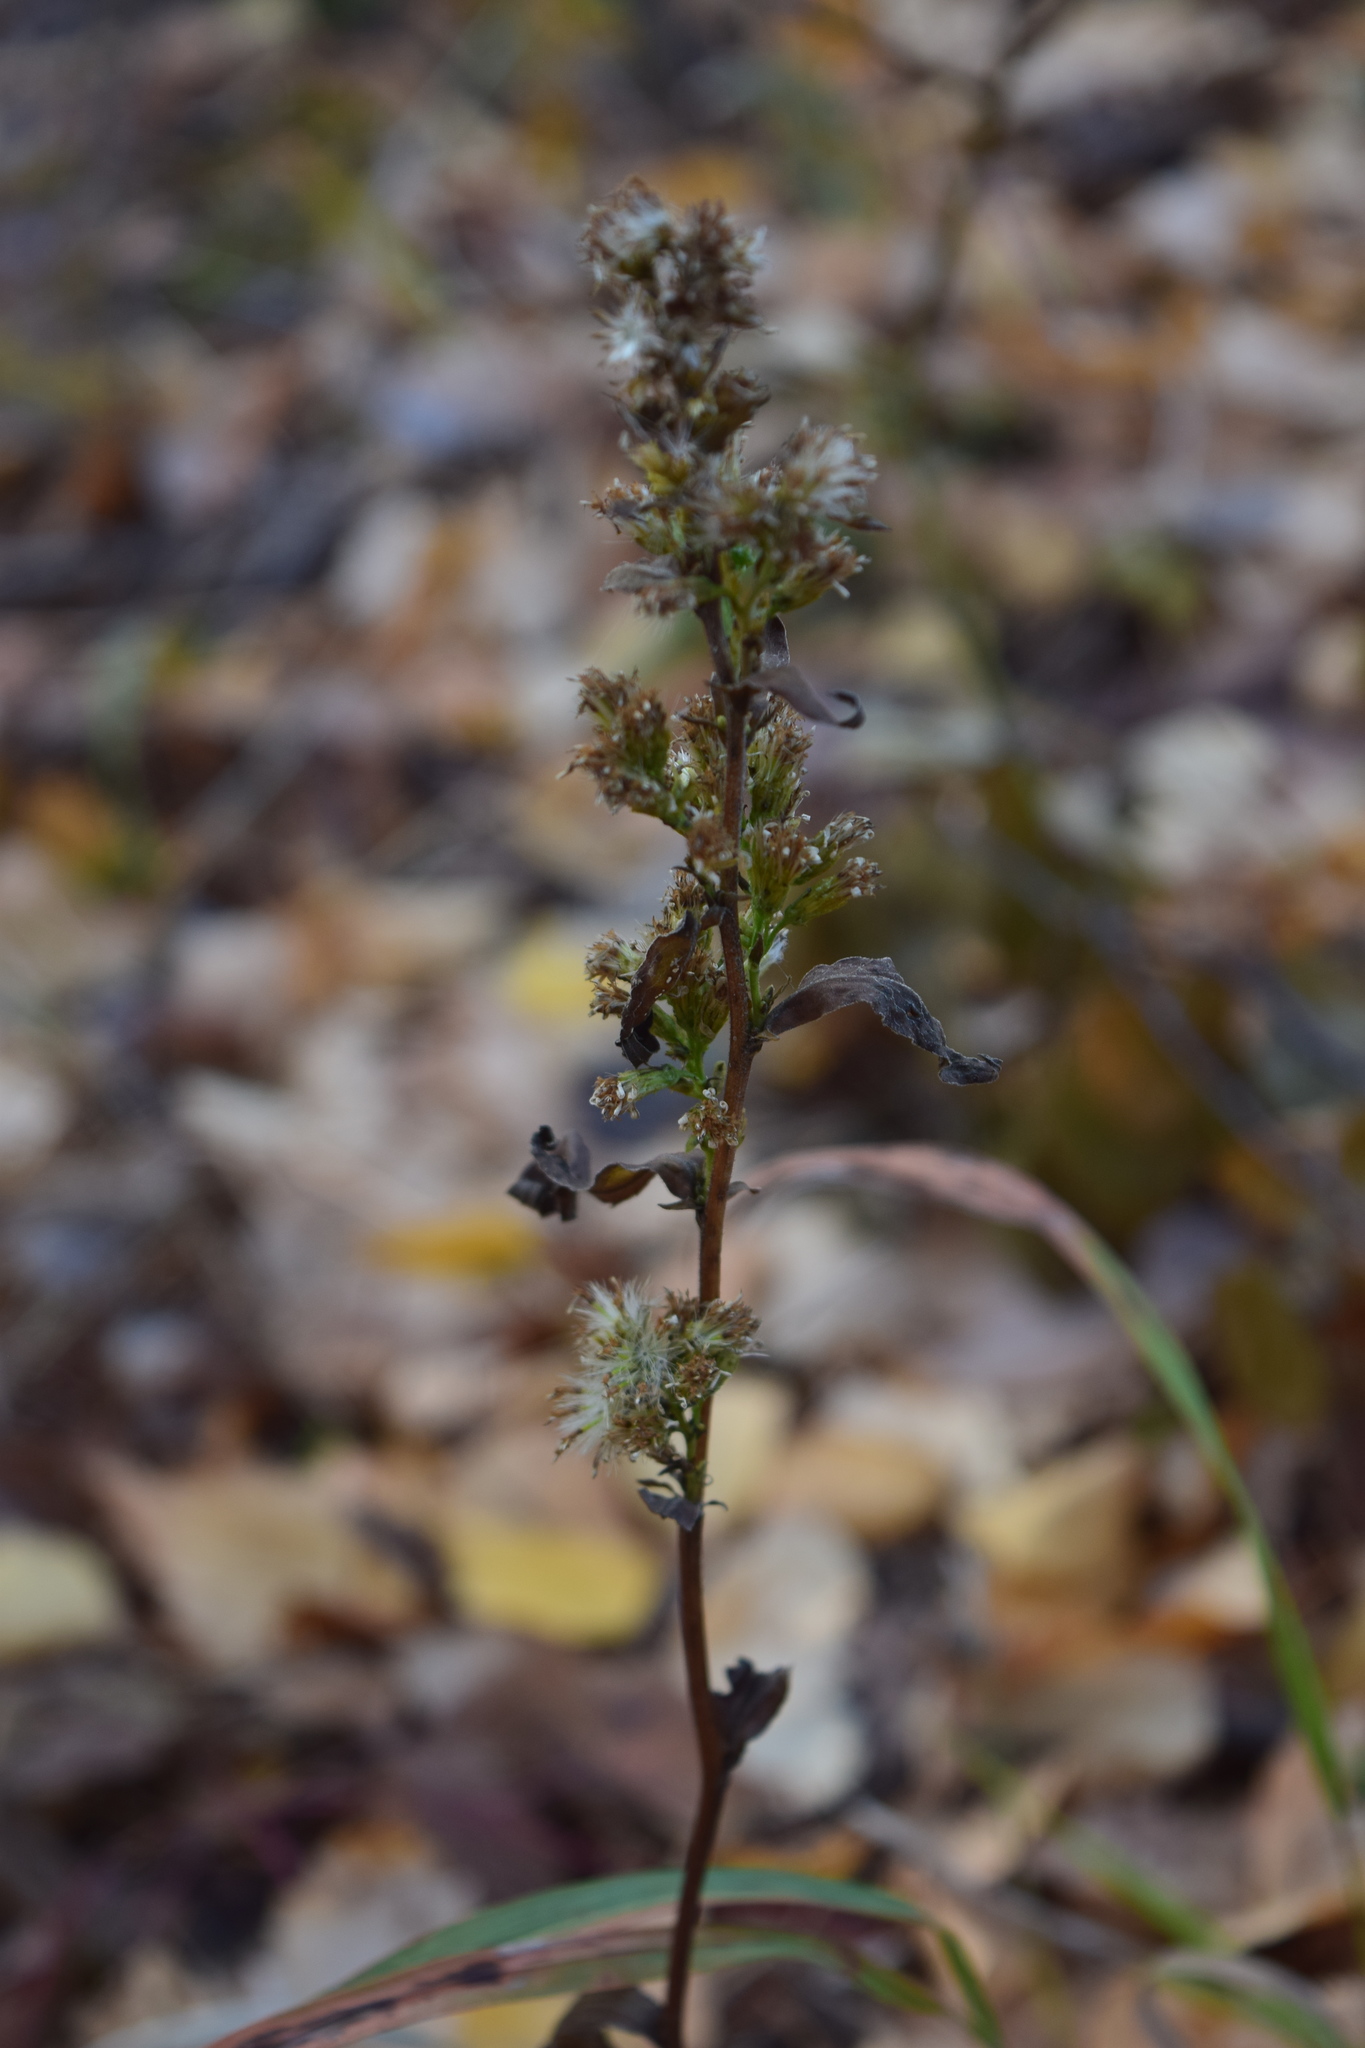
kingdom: Plantae
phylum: Tracheophyta
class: Magnoliopsida
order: Asterales
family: Asteraceae
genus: Solidago
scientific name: Solidago virgaurea
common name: Goldenrod
